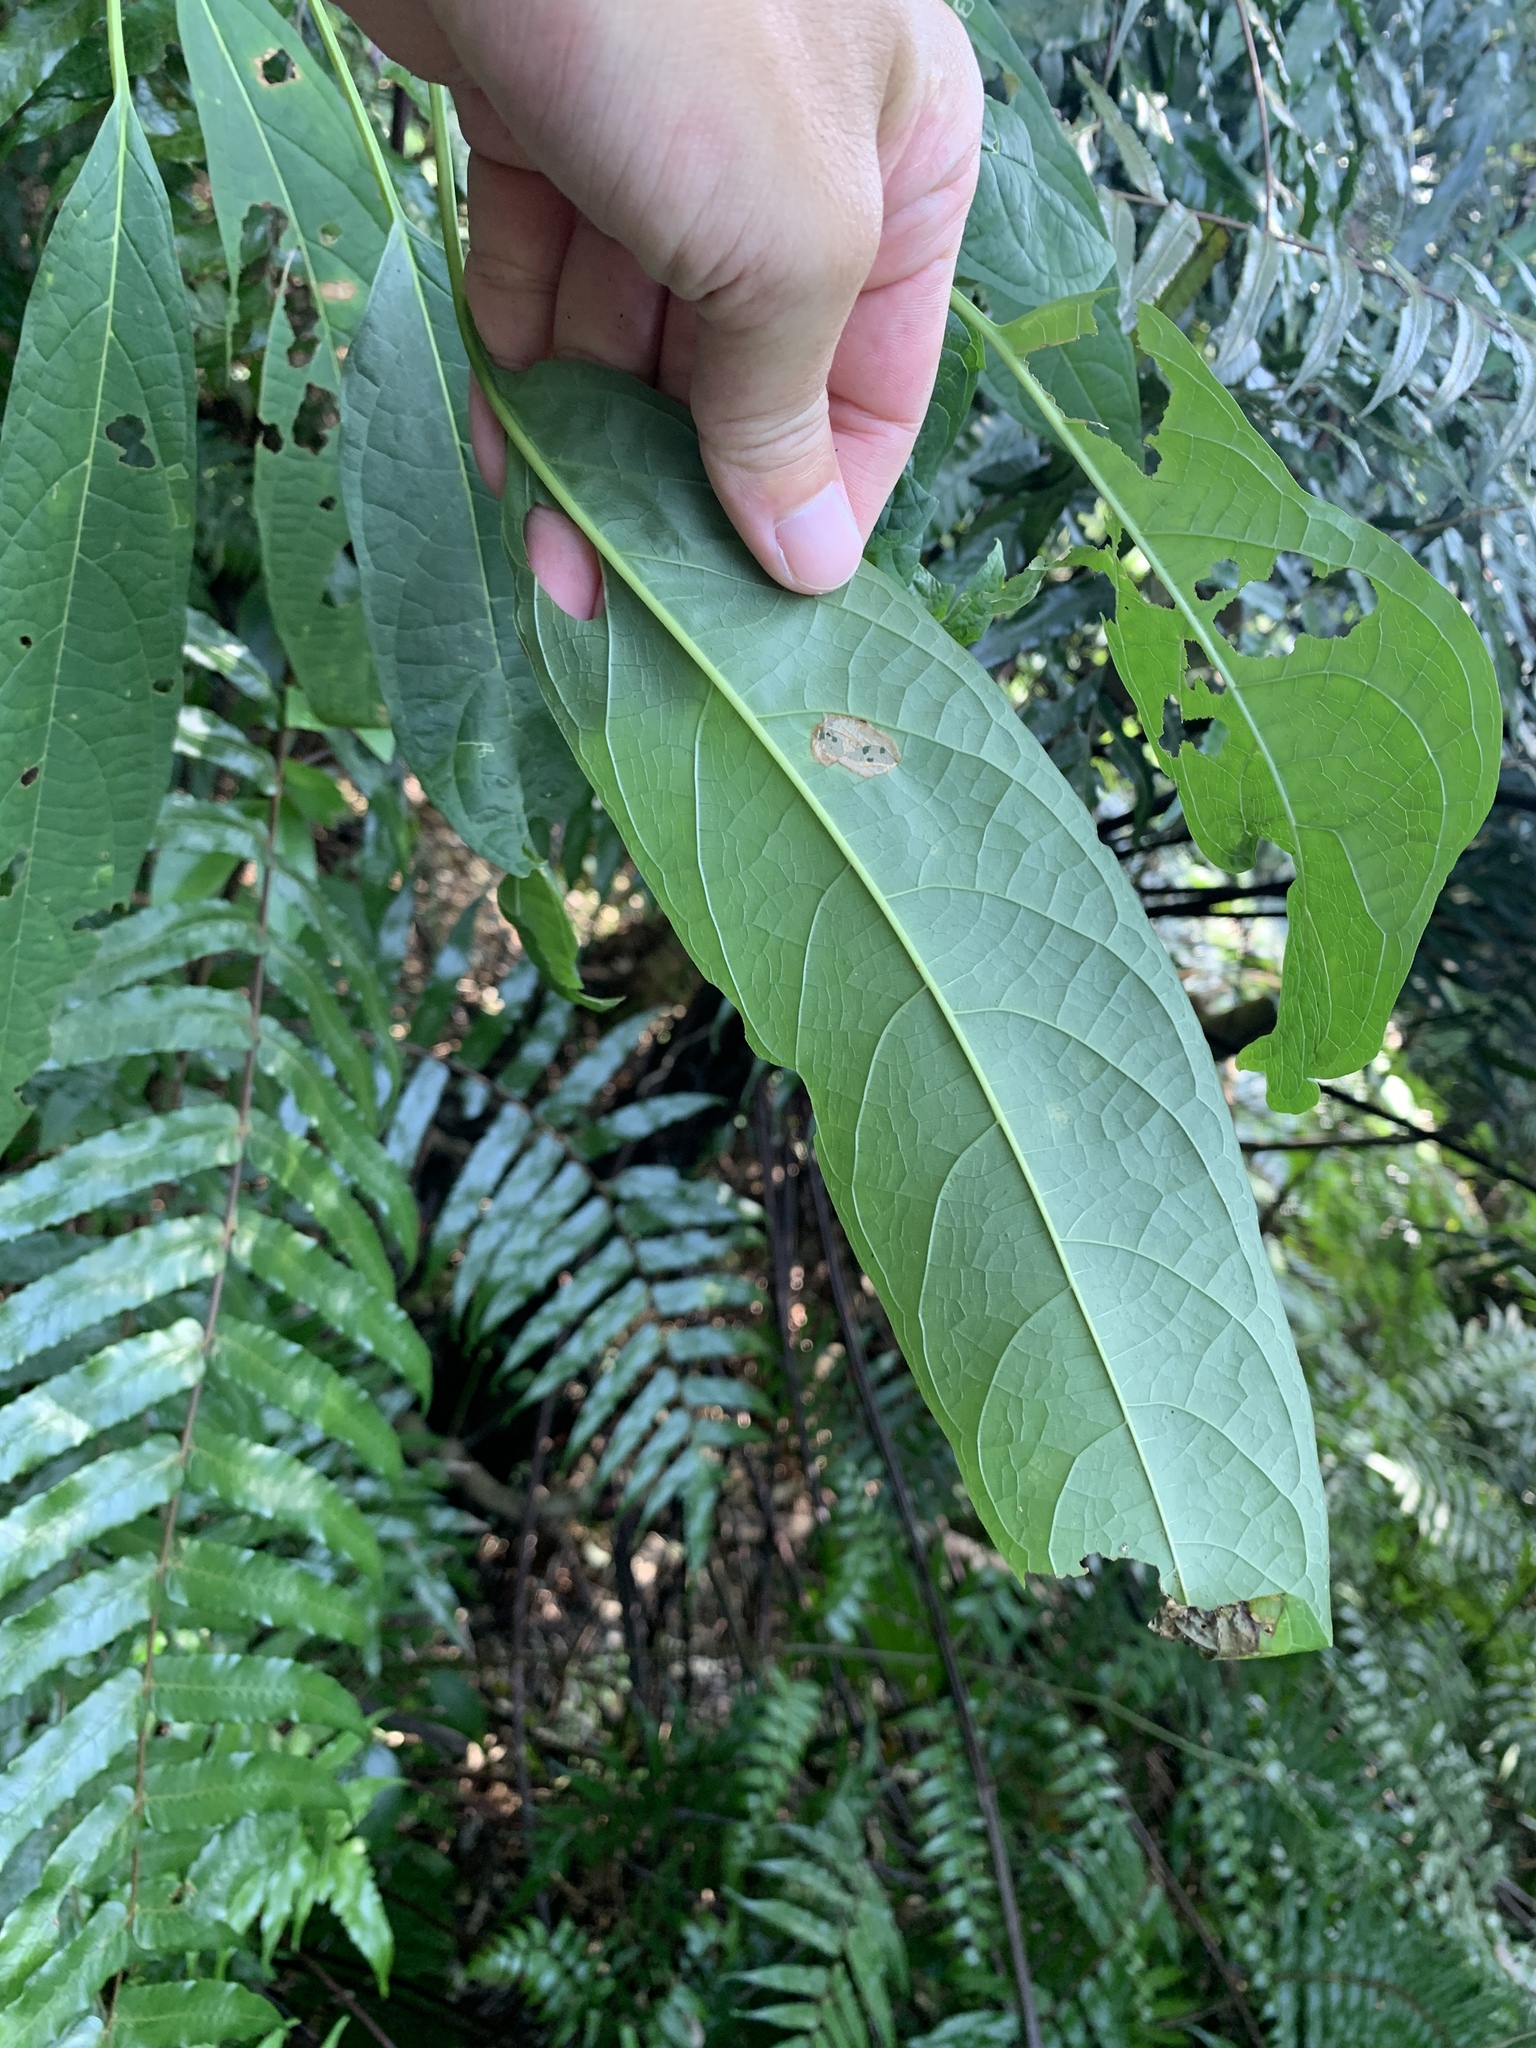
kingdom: Plantae
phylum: Tracheophyta
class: Magnoliopsida
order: Lamiales
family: Lamiaceae
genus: Clerodendrum
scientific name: Clerodendrum cyrtophyllum
